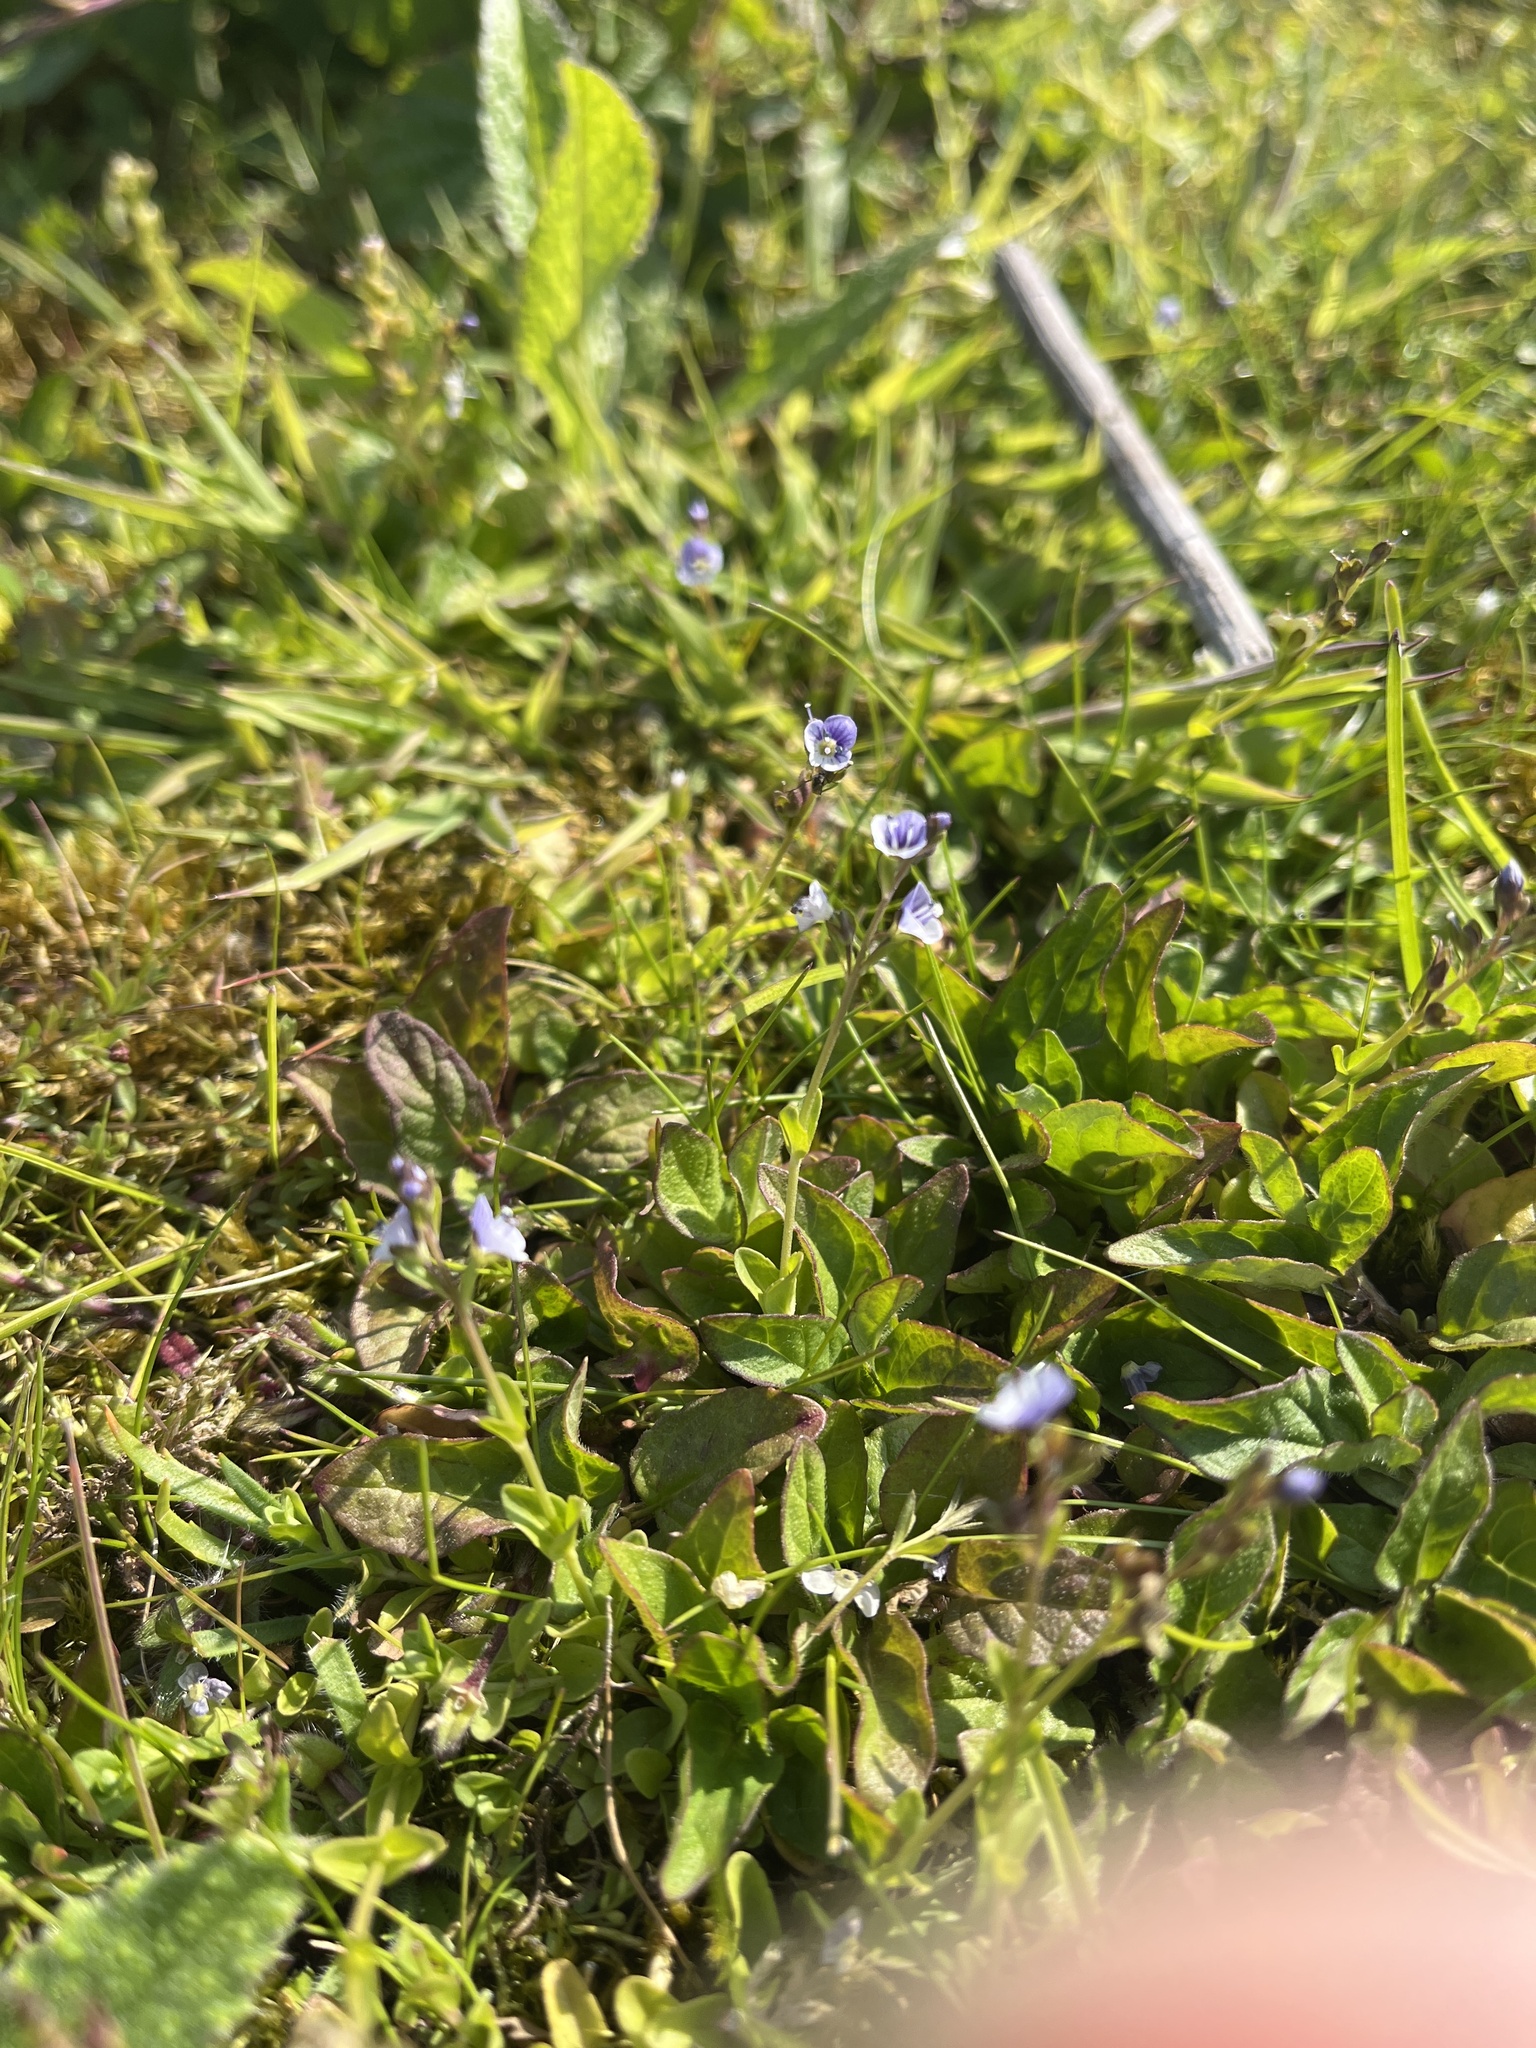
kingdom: Plantae
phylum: Tracheophyta
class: Magnoliopsida
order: Lamiales
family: Plantaginaceae
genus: Veronica
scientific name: Veronica serpyllifolia
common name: Thyme-leaved speedwell
